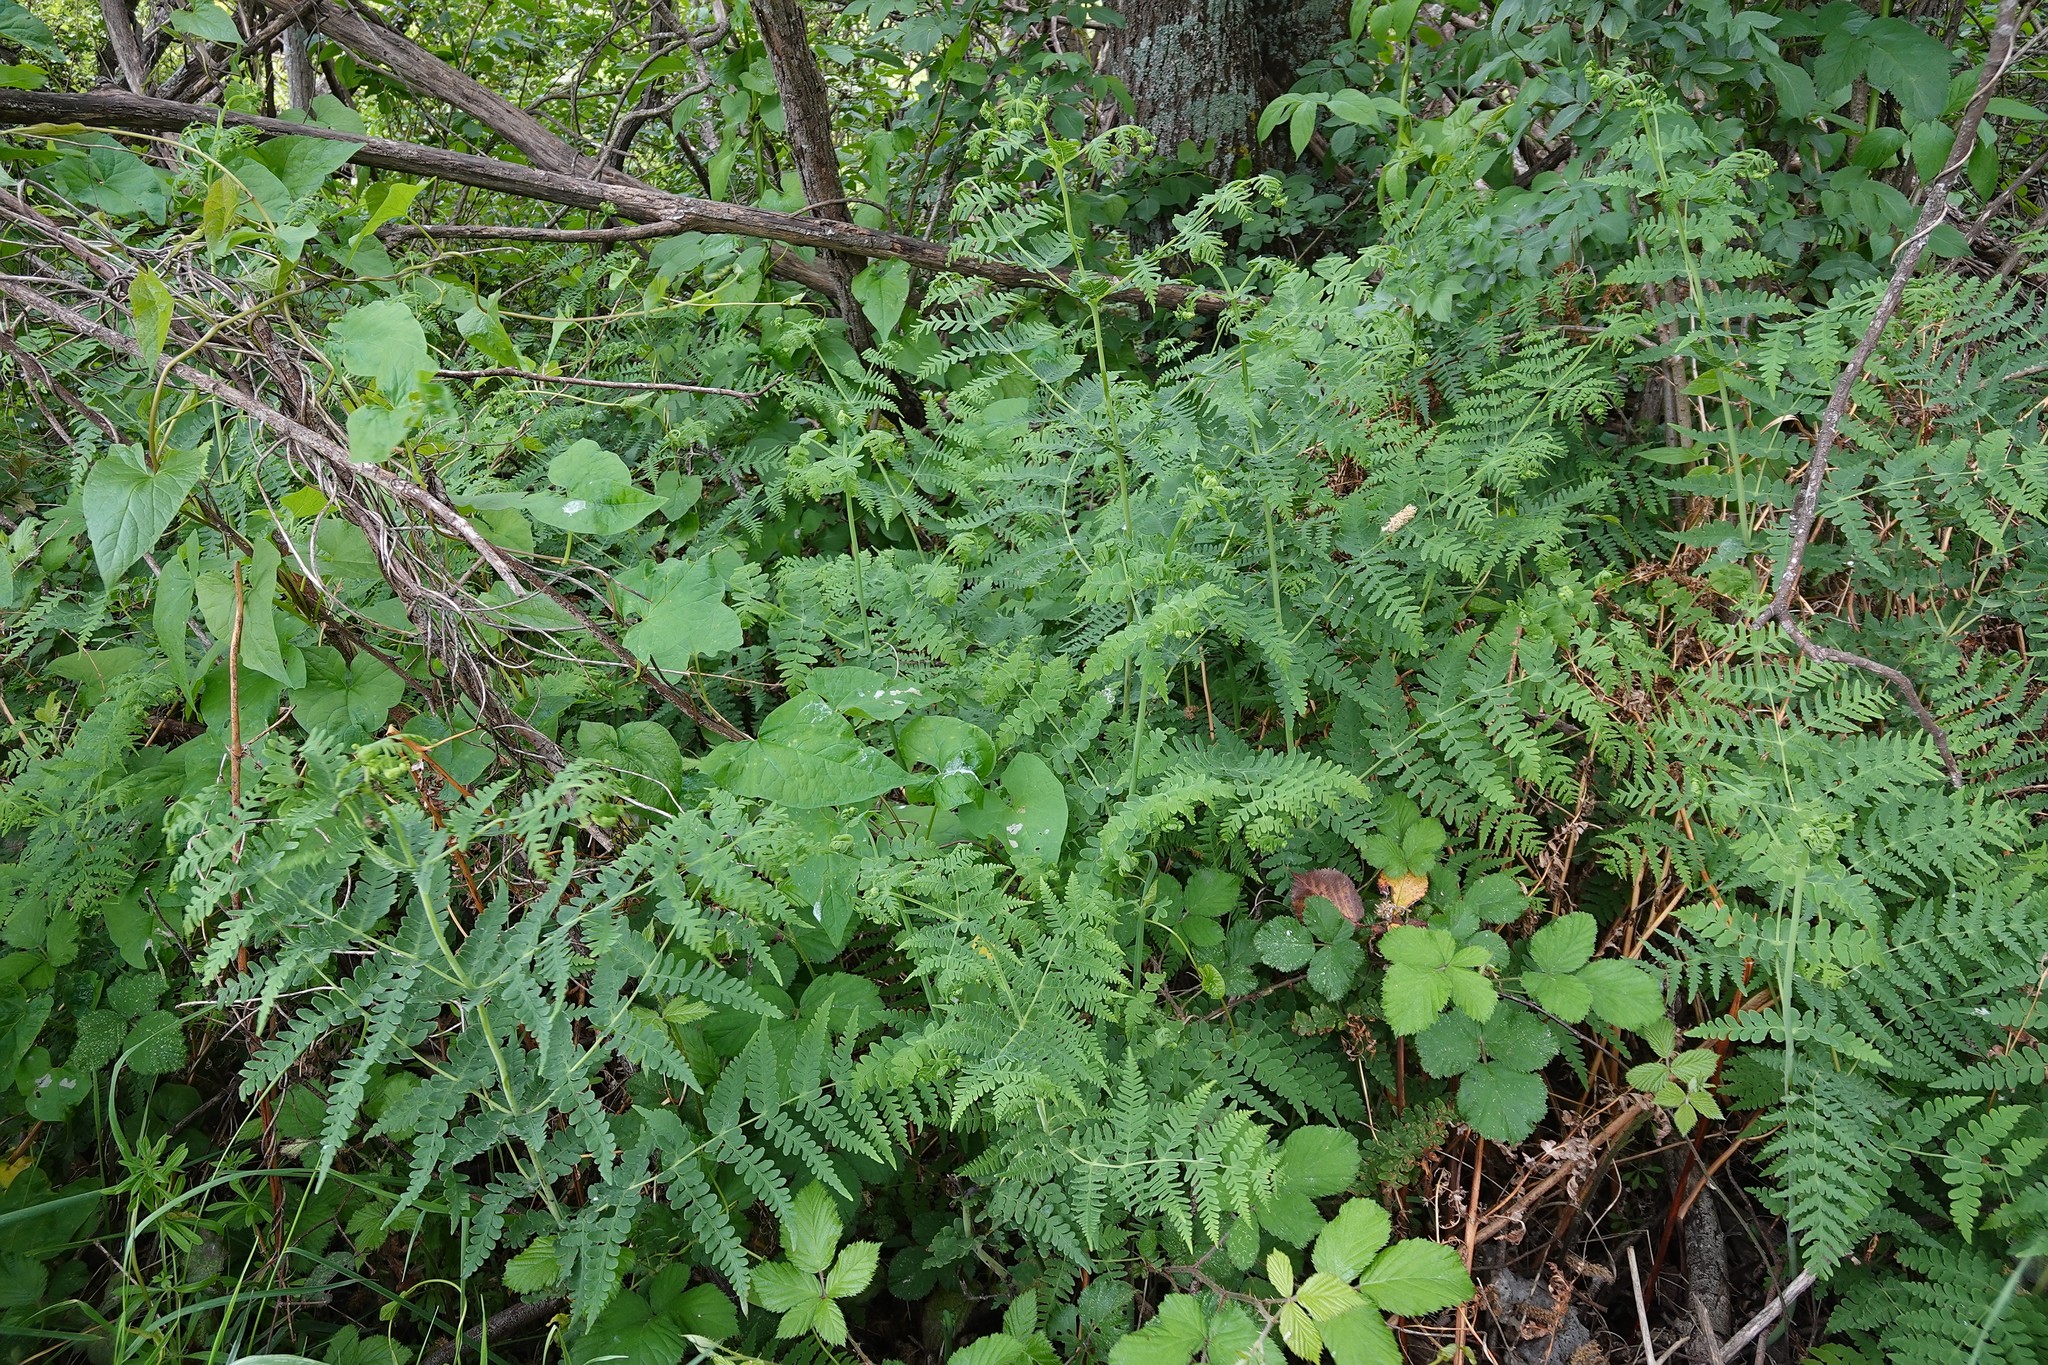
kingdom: Plantae
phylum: Tracheophyta
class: Polypodiopsida
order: Polypodiales
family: Dennstaedtiaceae
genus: Histiopteris
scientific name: Histiopteris incisa
